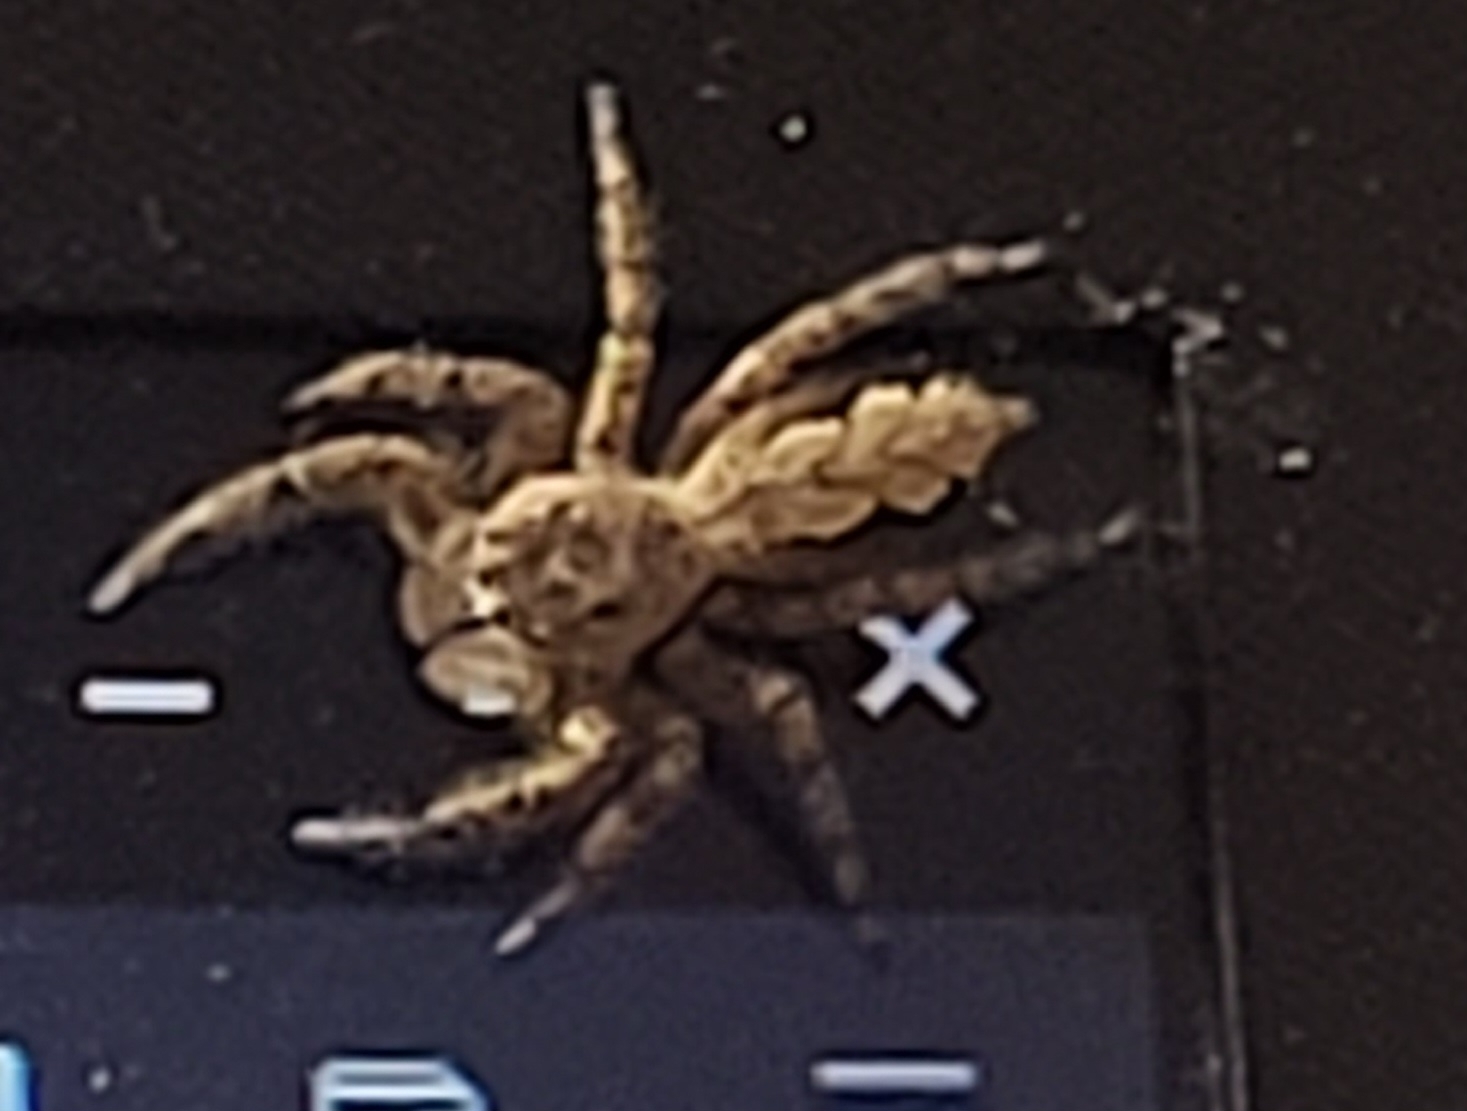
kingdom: Animalia
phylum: Arthropoda
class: Arachnida
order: Araneae
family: Salticidae
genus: Platycryptus
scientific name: Platycryptus undatus
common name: Tan jumping spider
